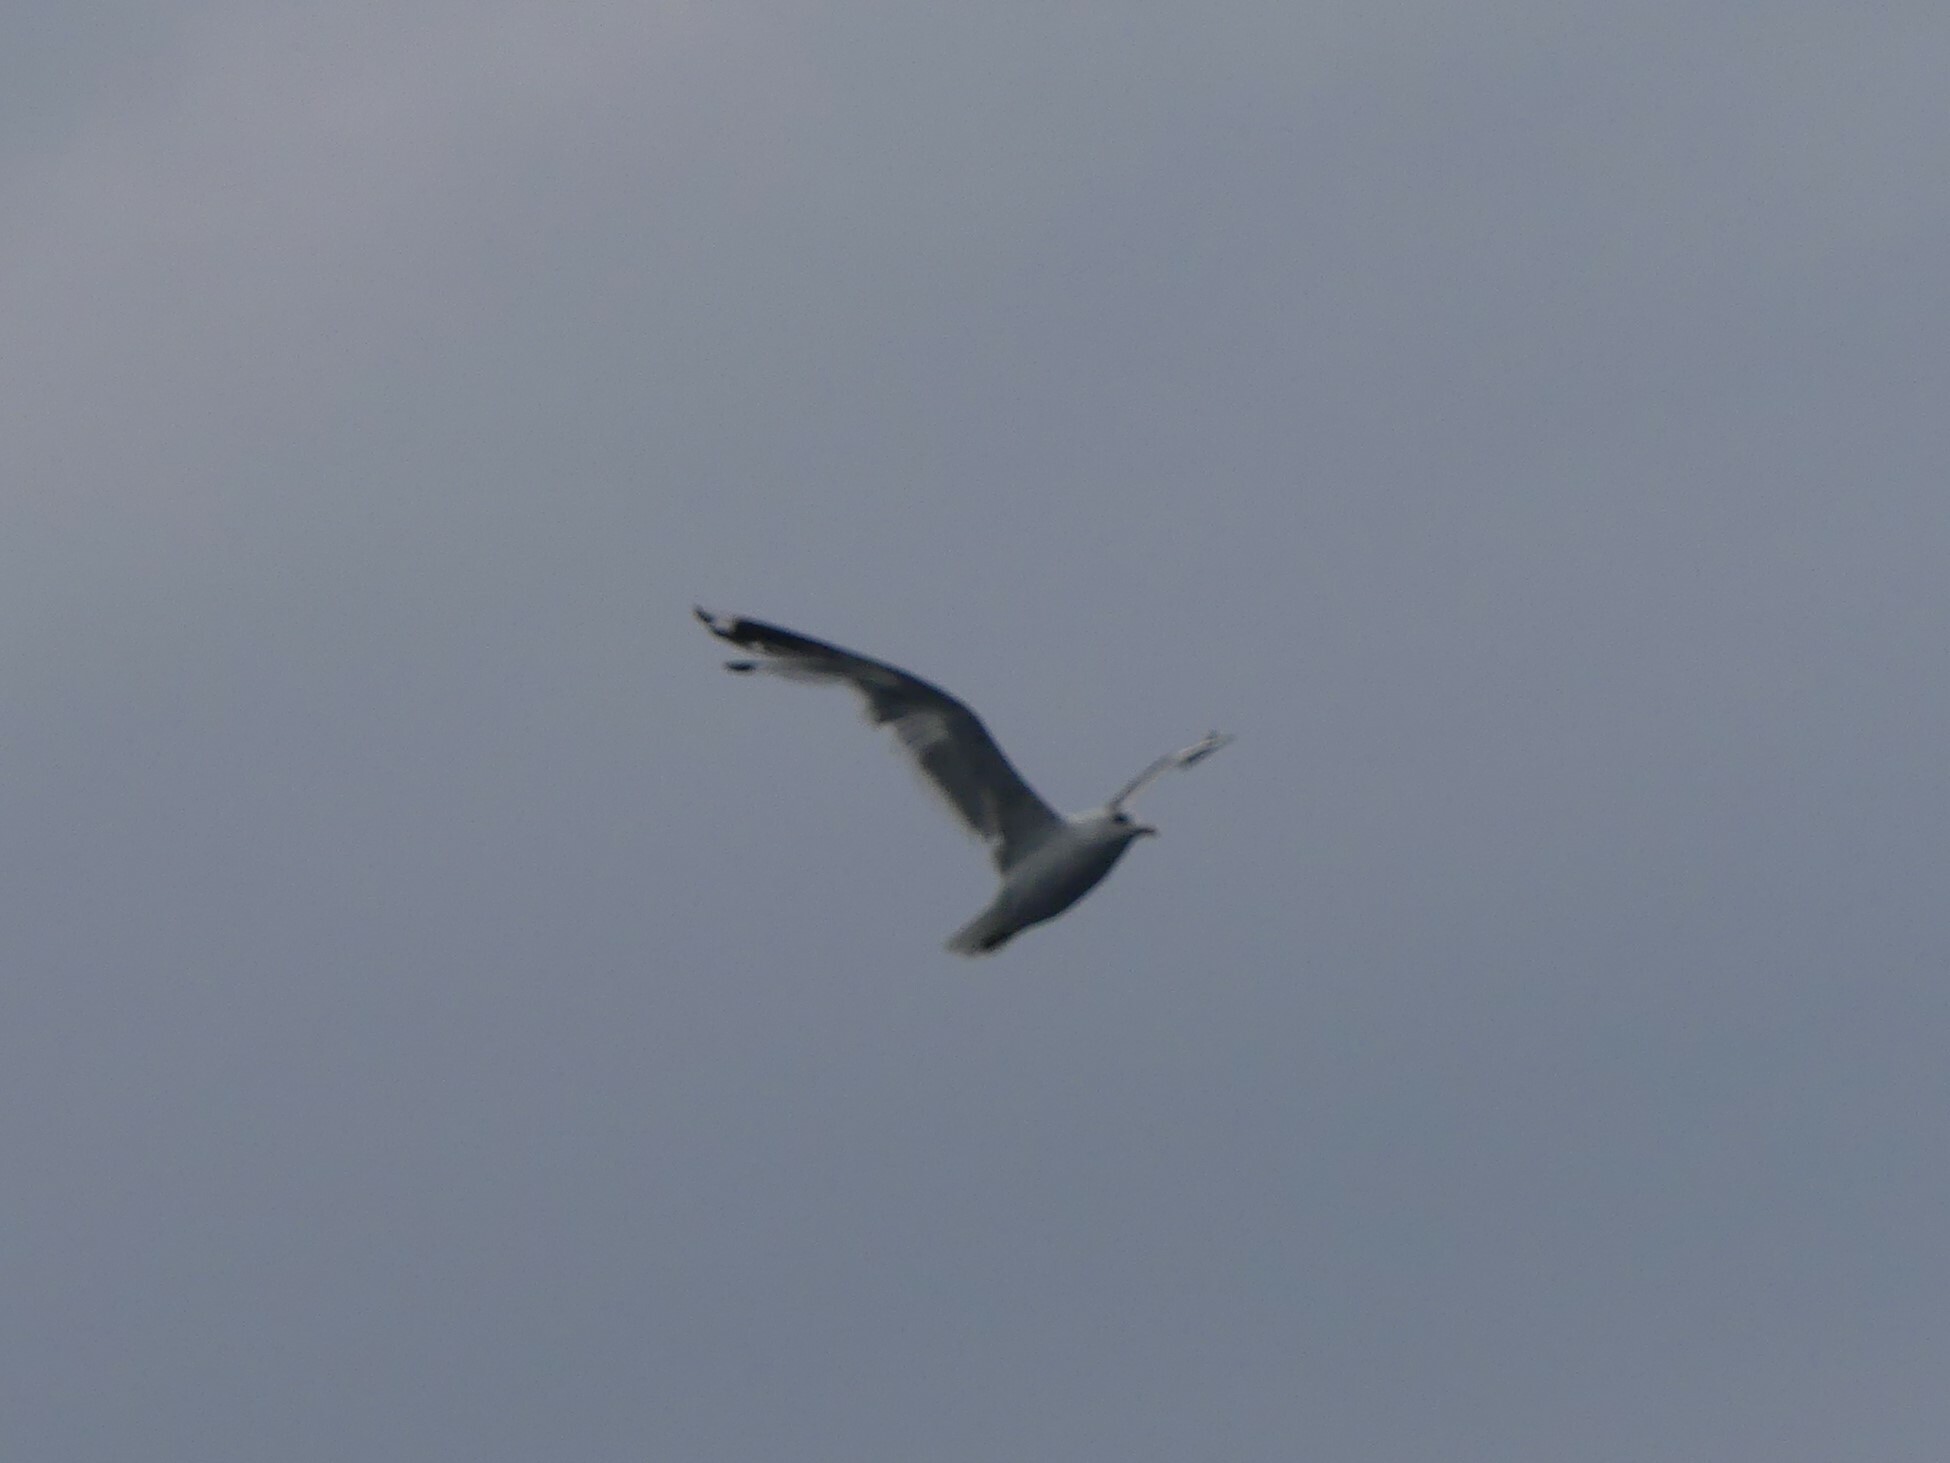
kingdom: Animalia
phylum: Chordata
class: Aves
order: Charadriiformes
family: Laridae
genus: Larus
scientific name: Larus brachyrhynchus
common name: Short-billed gull
